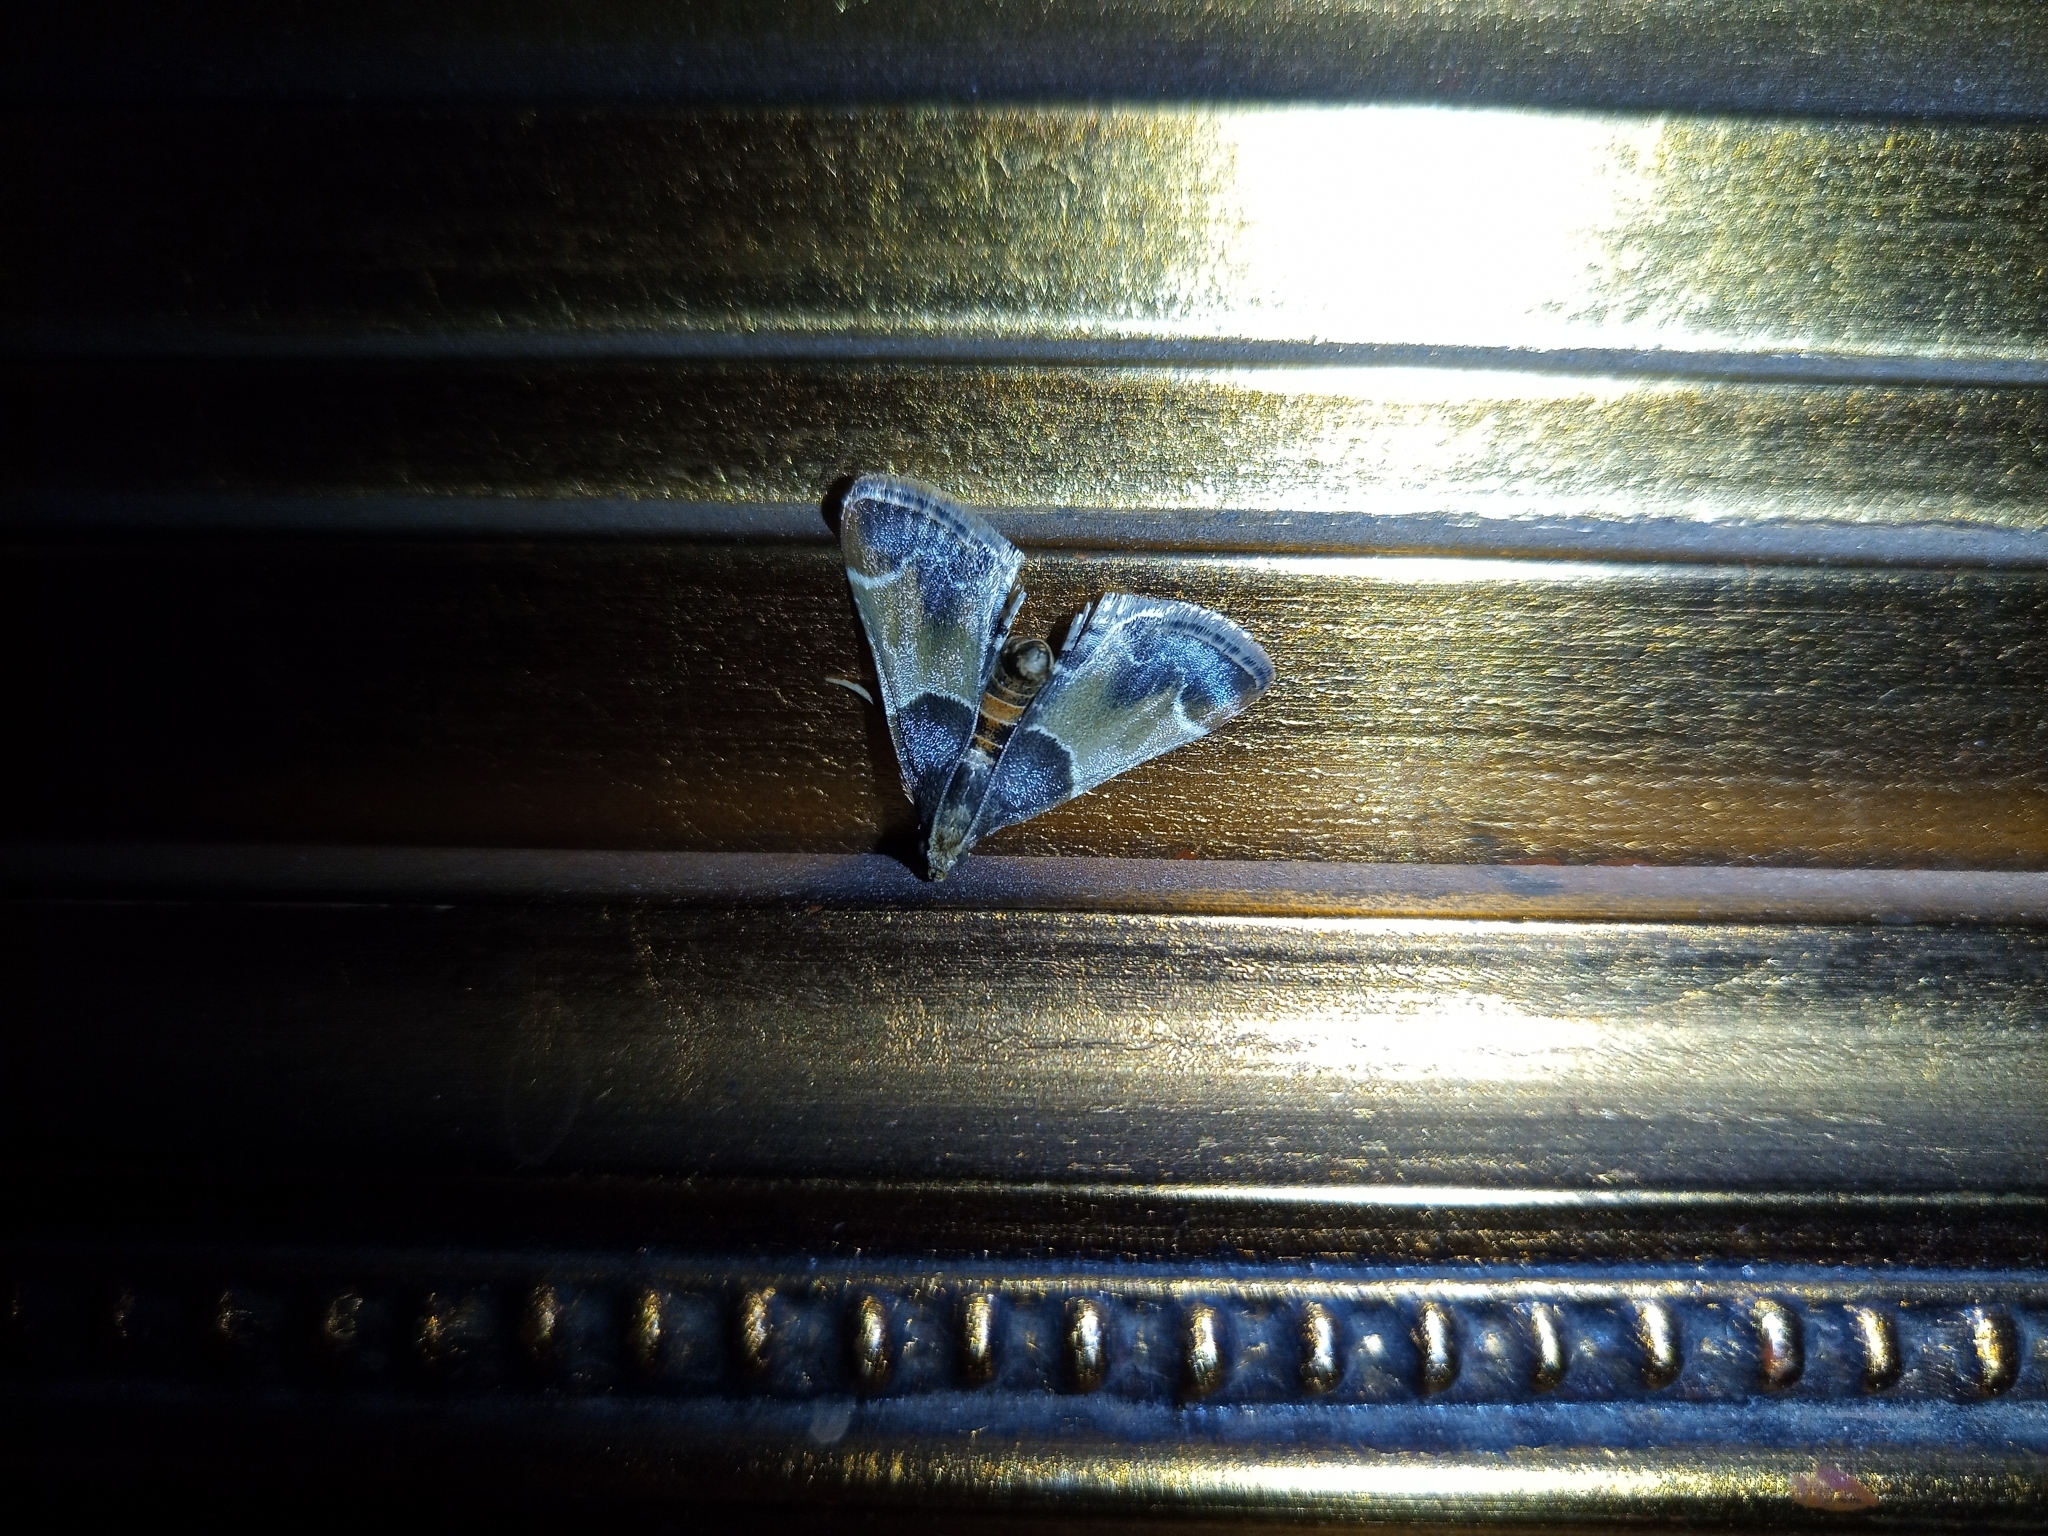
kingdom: Animalia
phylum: Arthropoda
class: Insecta
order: Lepidoptera
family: Pyralidae
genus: Pyralis
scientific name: Pyralis farinalis
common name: Meal moth
